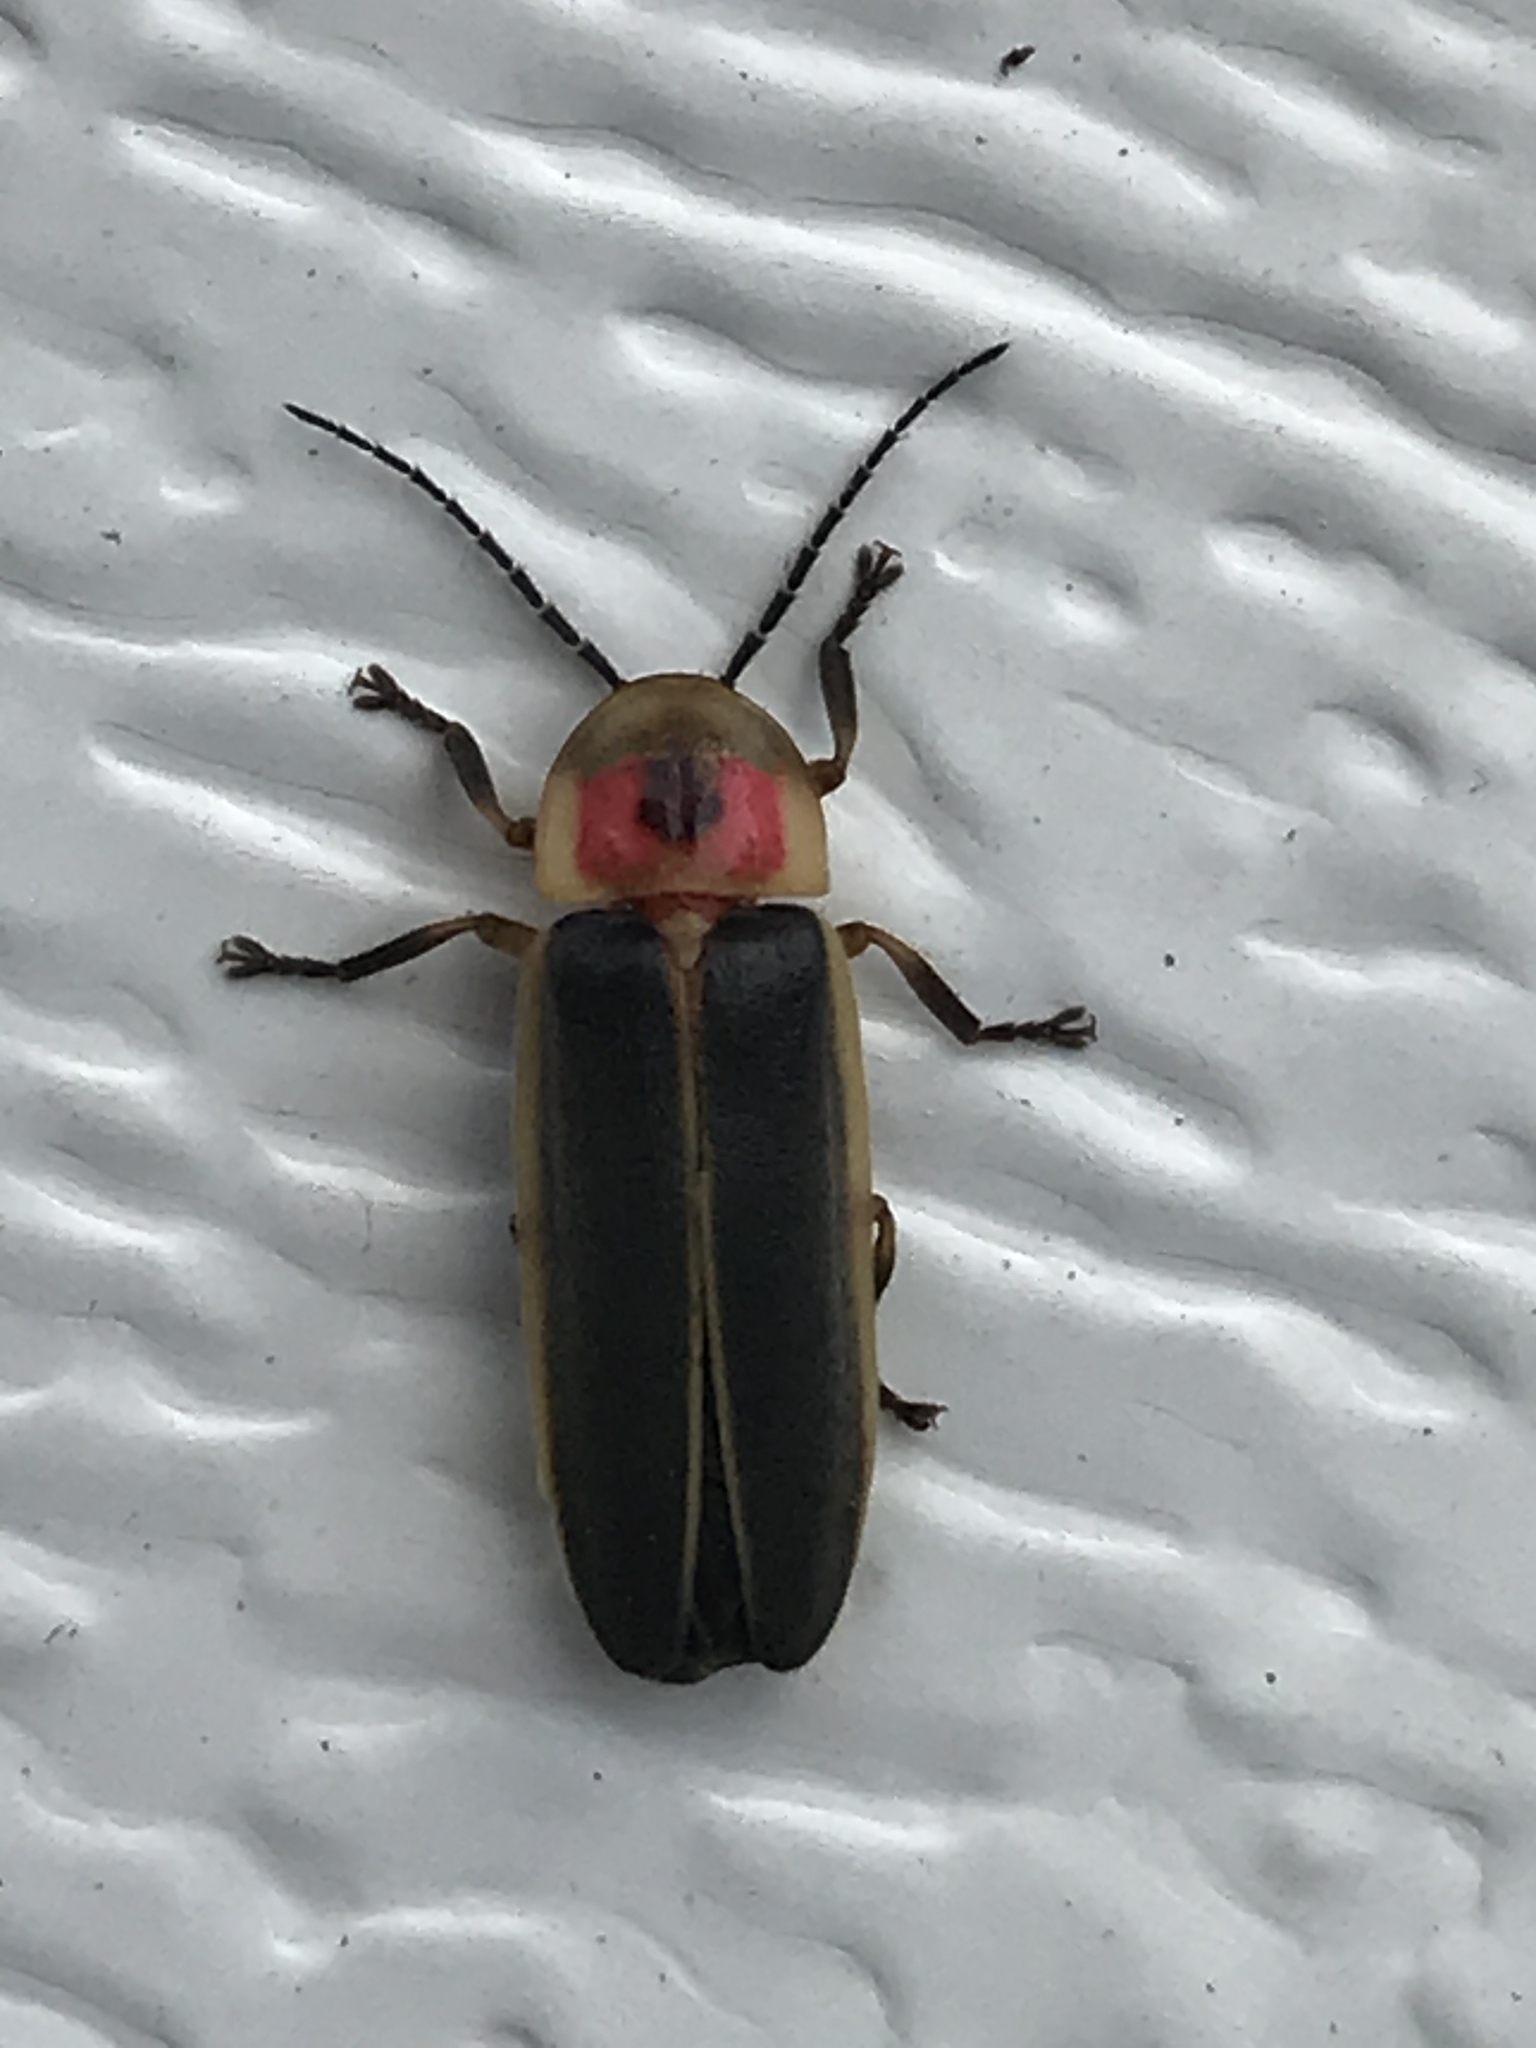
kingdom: Animalia
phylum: Arthropoda
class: Insecta
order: Coleoptera
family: Lampyridae
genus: Photinus
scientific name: Photinus pyralis
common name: Big dipper firefly
